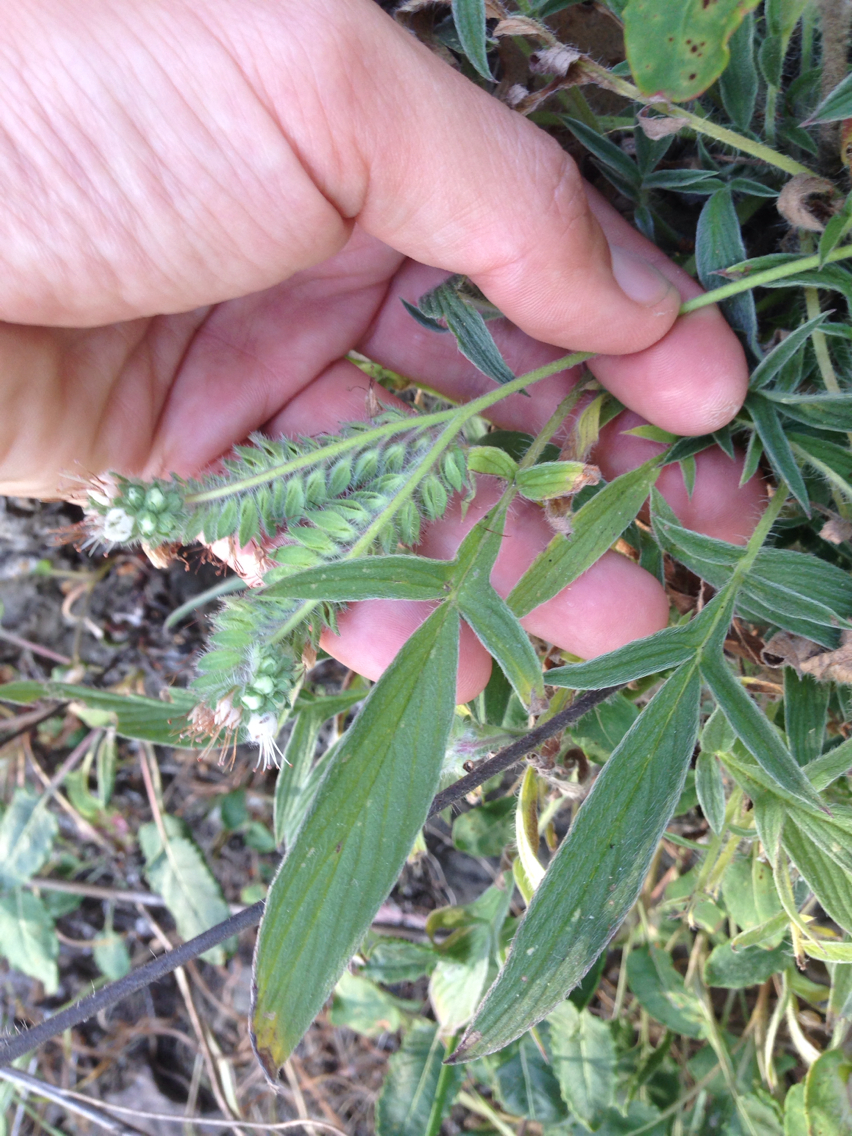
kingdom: Plantae
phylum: Tracheophyta
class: Magnoliopsida
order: Boraginales
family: Hydrophyllaceae
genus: Phacelia
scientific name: Phacelia imbricata
